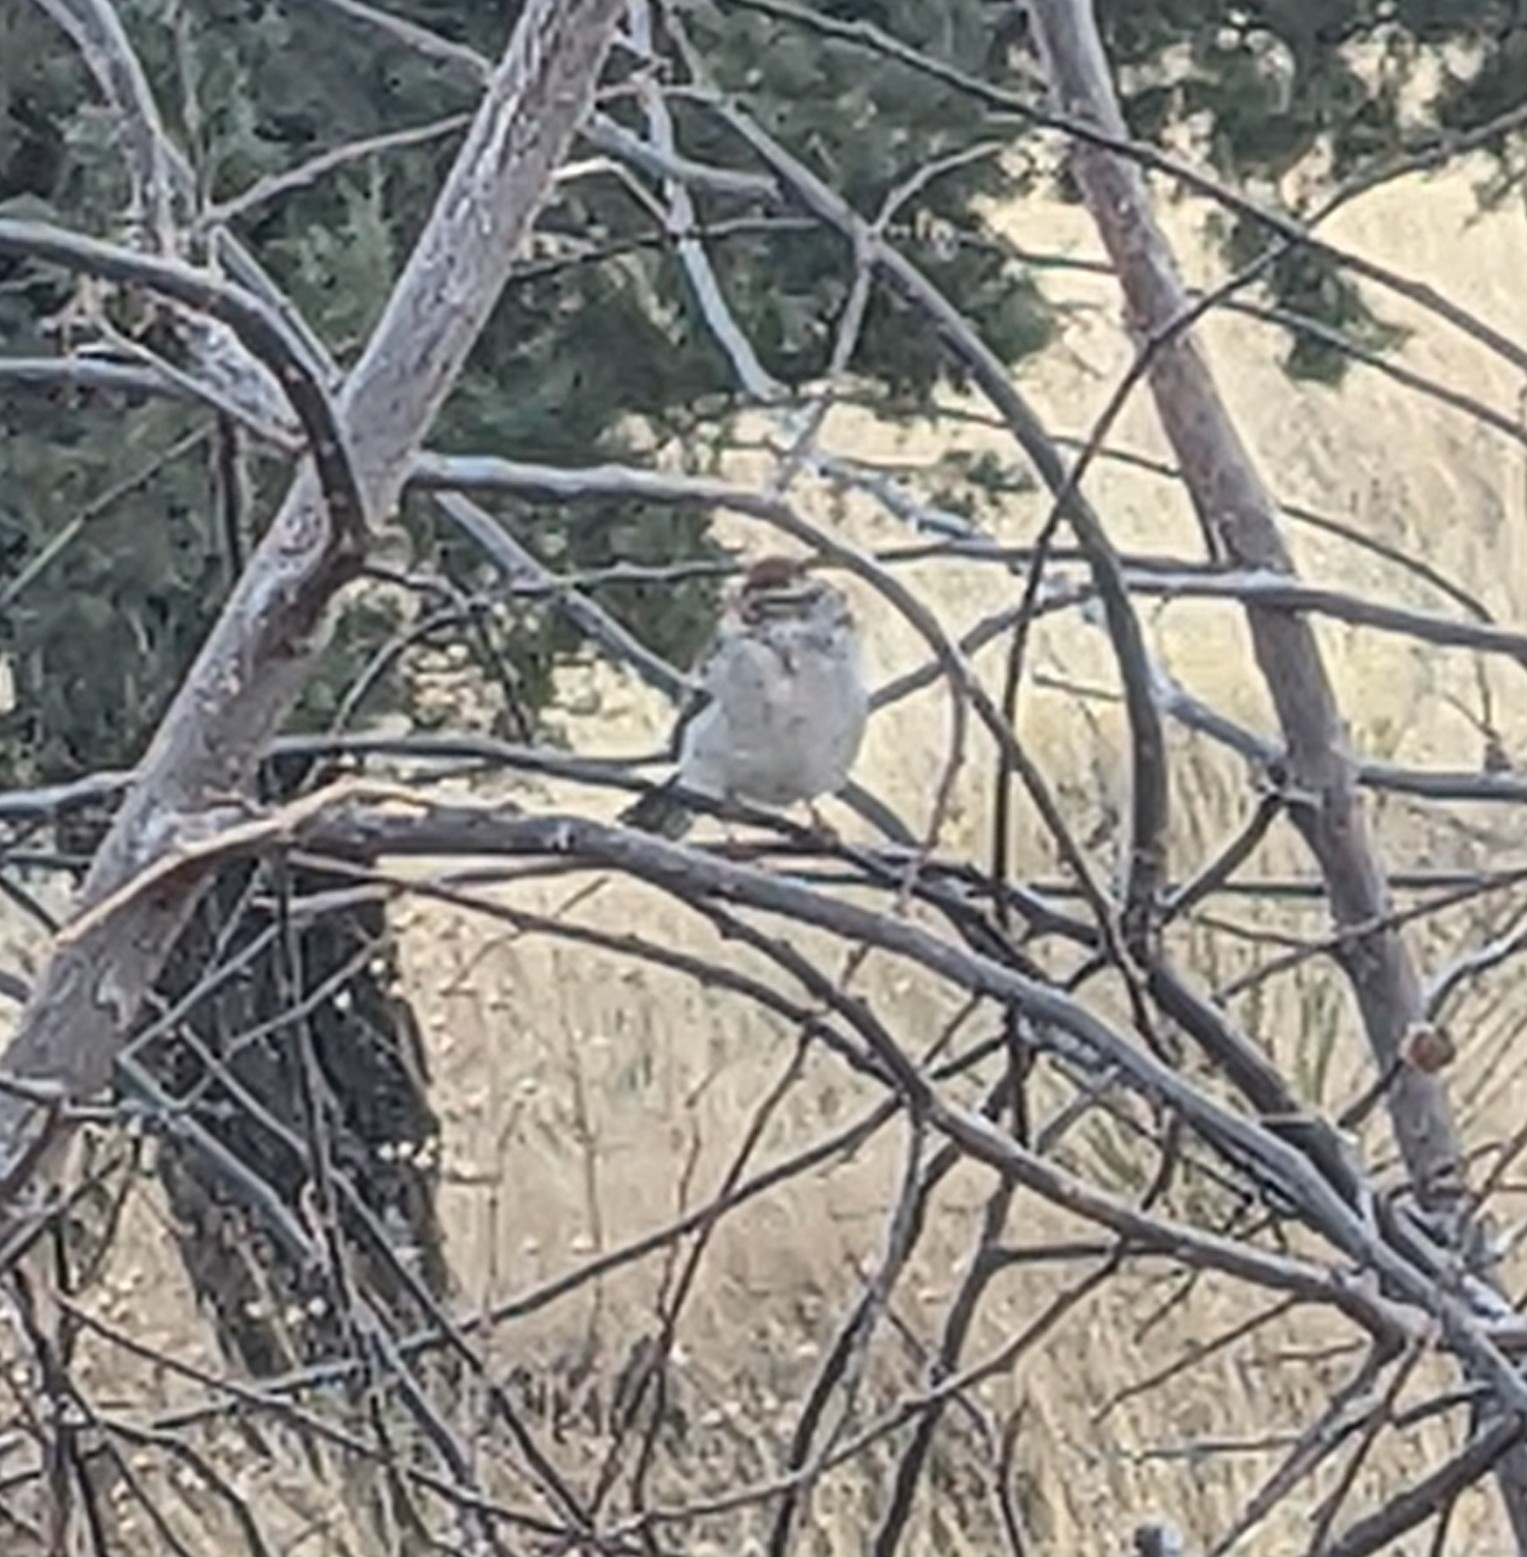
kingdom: Animalia
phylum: Chordata
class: Aves
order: Passeriformes
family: Passerellidae
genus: Spizella
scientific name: Spizella passerina
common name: Chipping sparrow
